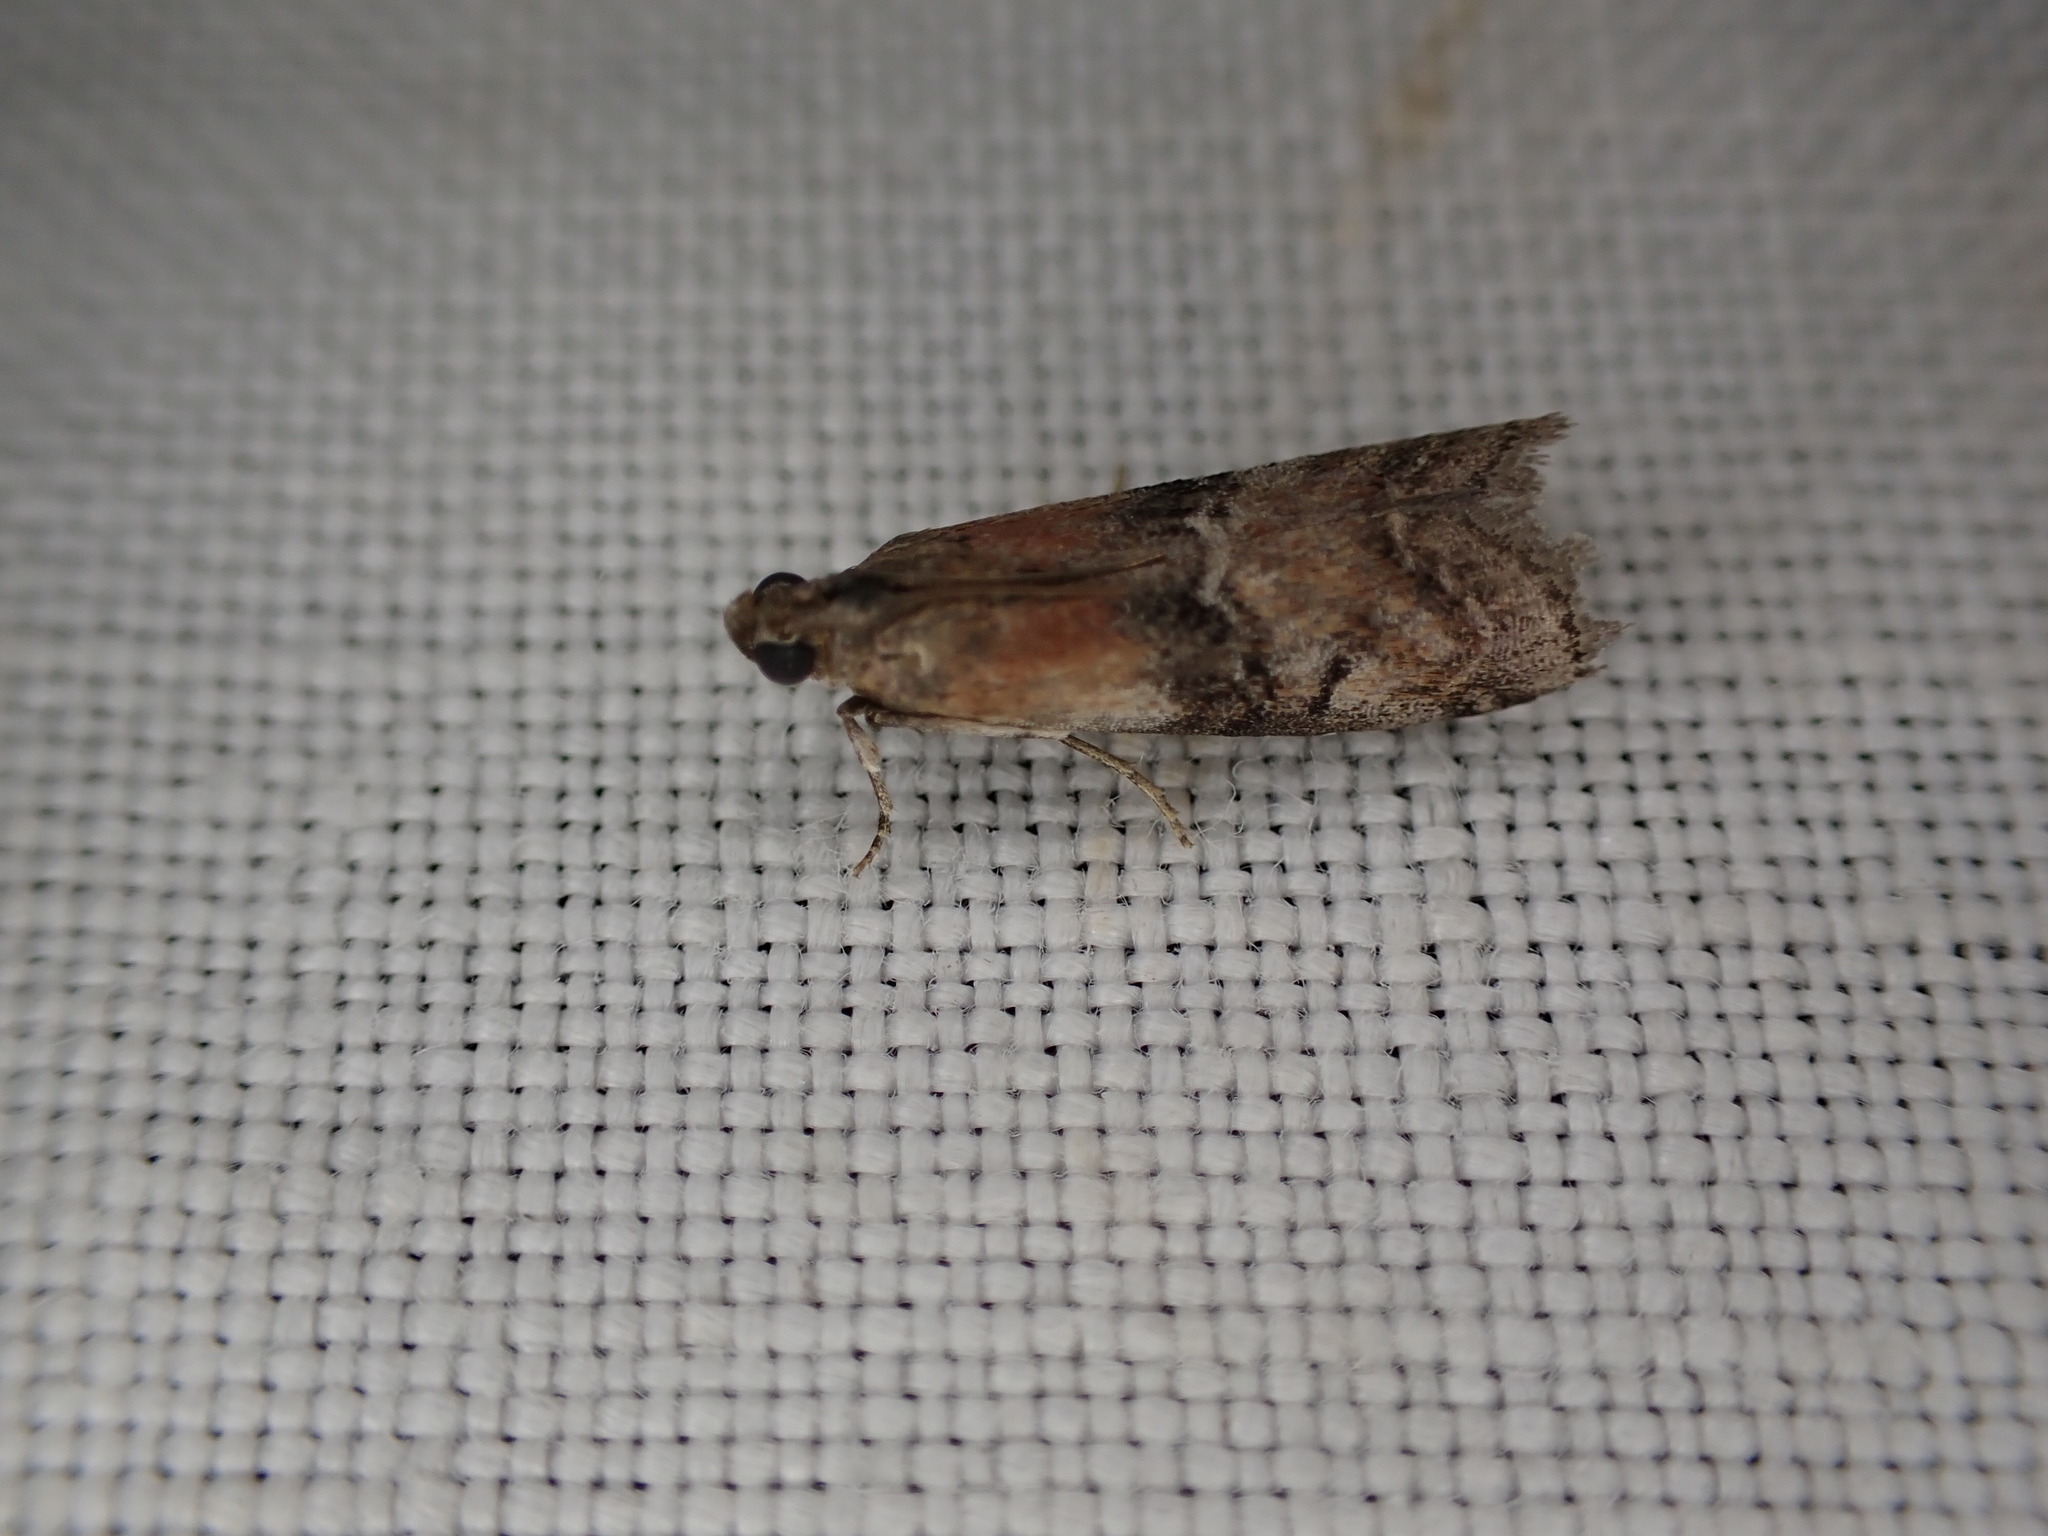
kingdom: Animalia
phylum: Arthropoda
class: Insecta
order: Lepidoptera
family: Pyralidae
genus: Rhodophaea
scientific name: Rhodophaea formosa
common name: Beautiful knot-horn
